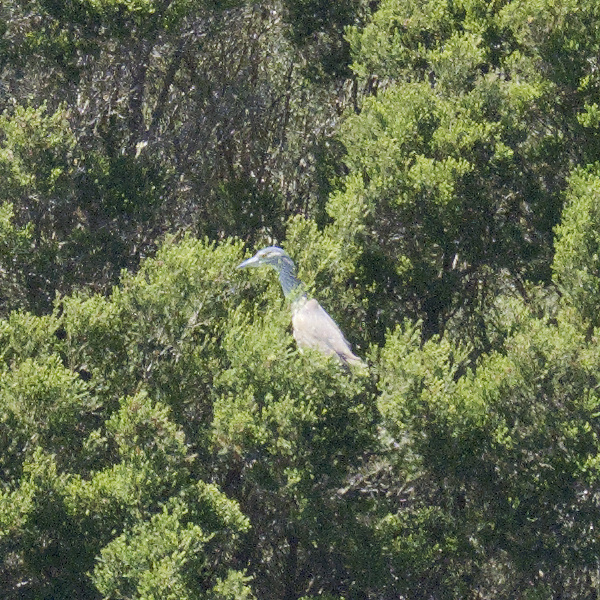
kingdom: Animalia
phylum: Chordata
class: Aves
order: Pelecaniformes
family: Ardeidae
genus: Nycticorax
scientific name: Nycticorax caledonicus
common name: Rufous night-heron
